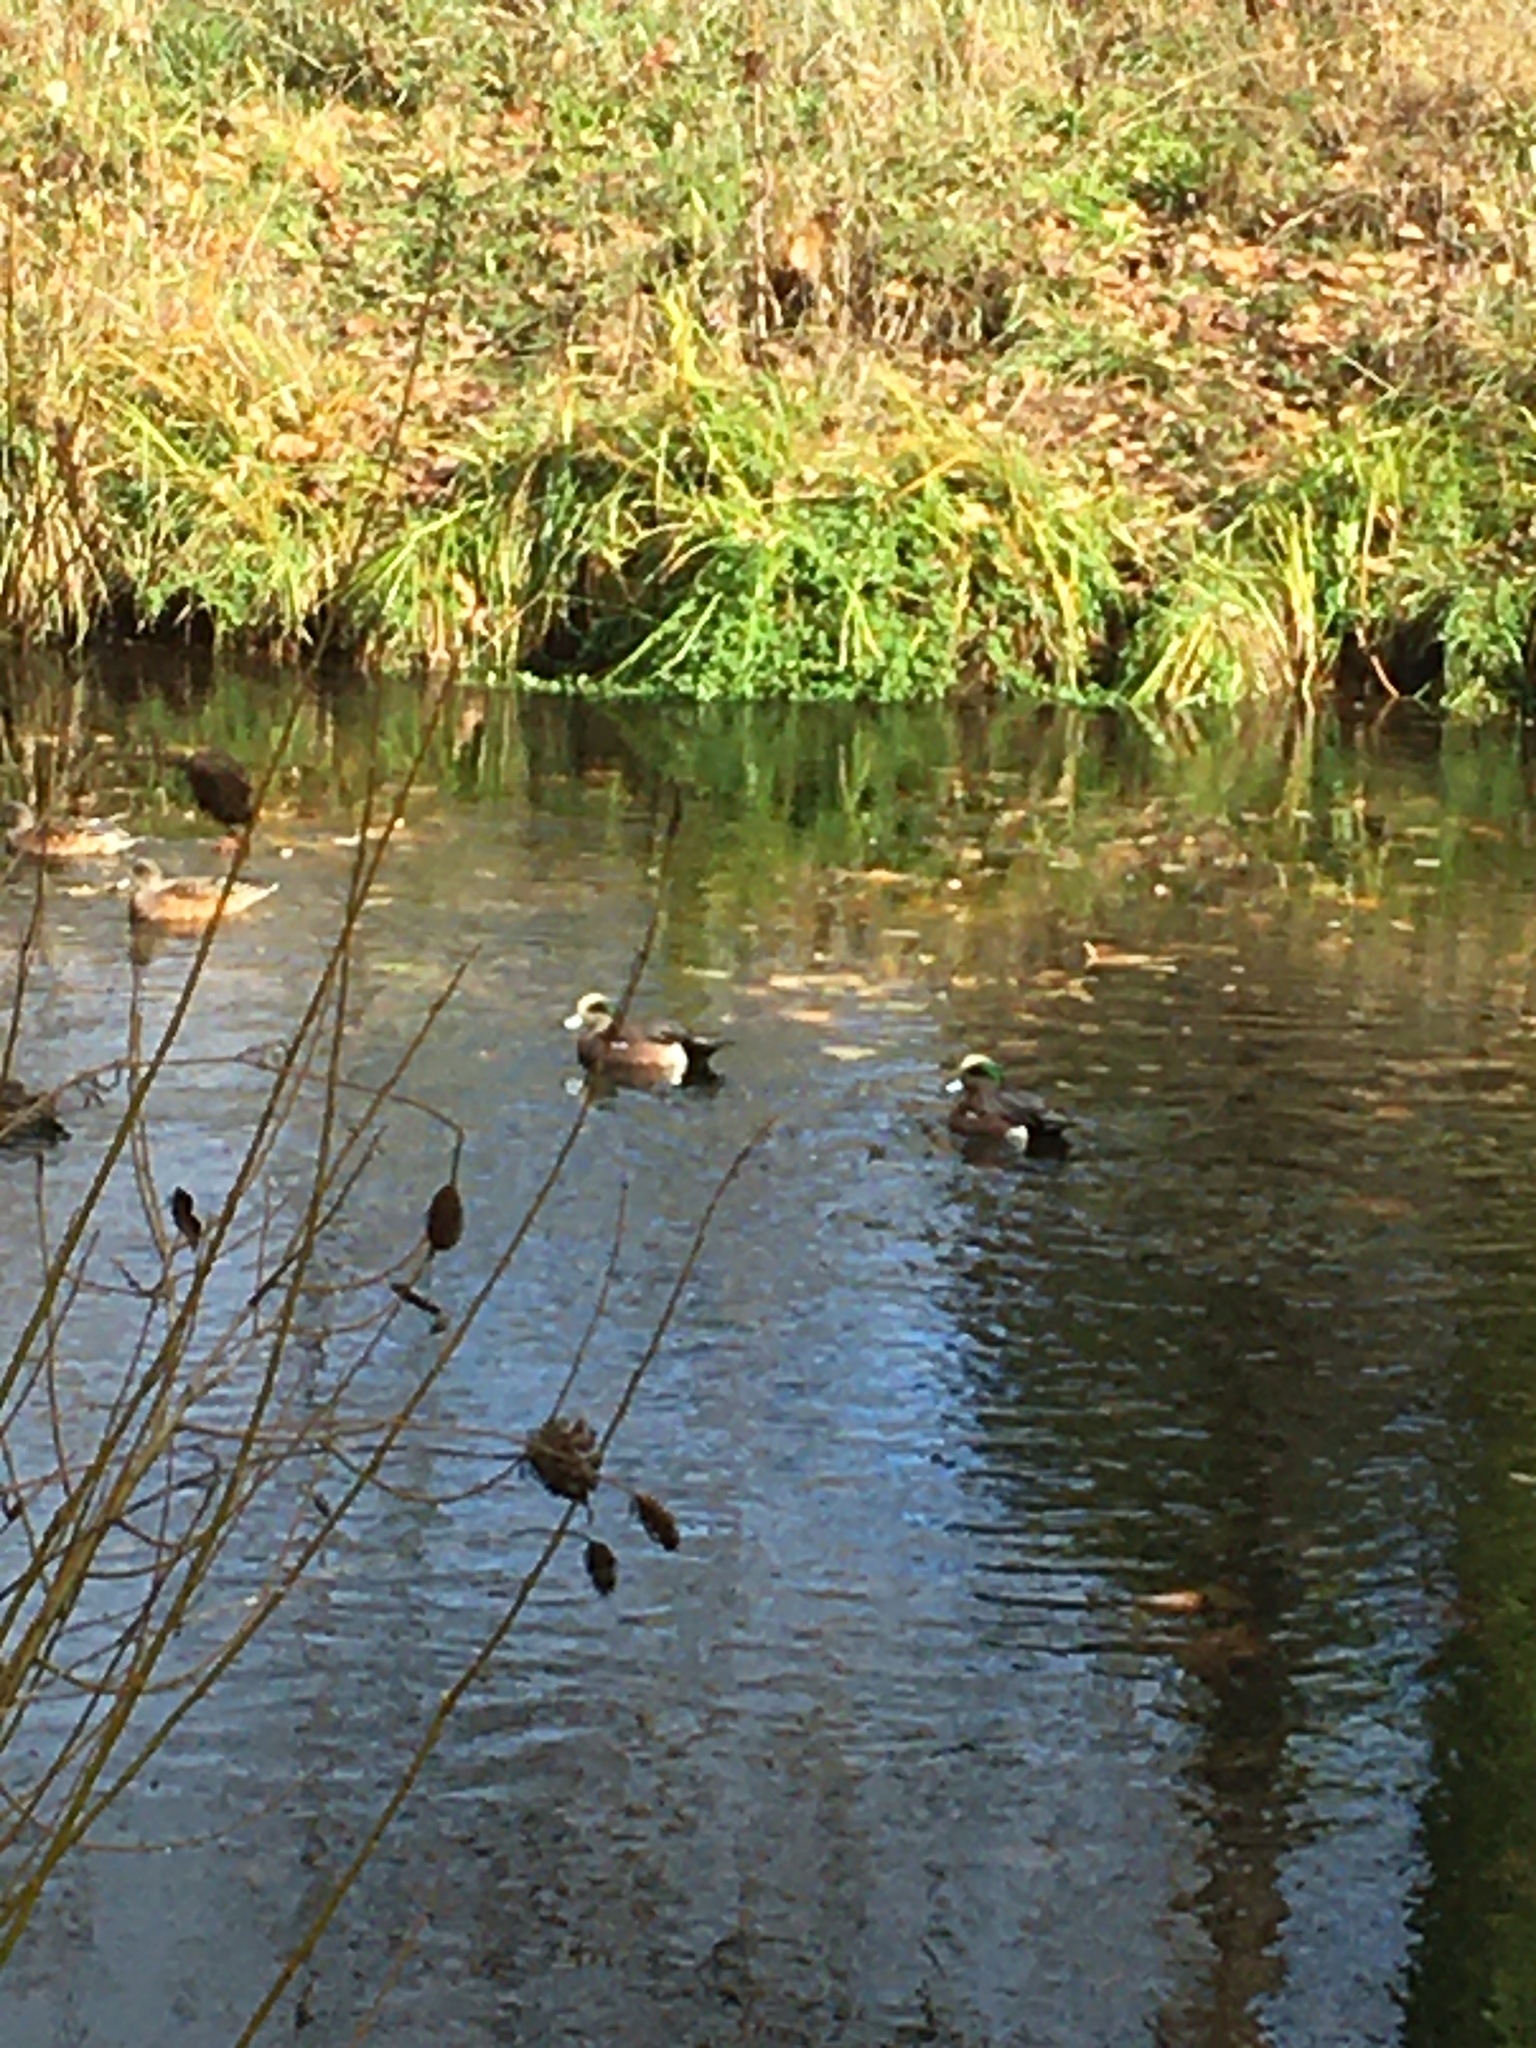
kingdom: Animalia
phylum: Chordata
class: Aves
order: Anseriformes
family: Anatidae
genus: Mareca
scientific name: Mareca americana
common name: American wigeon
